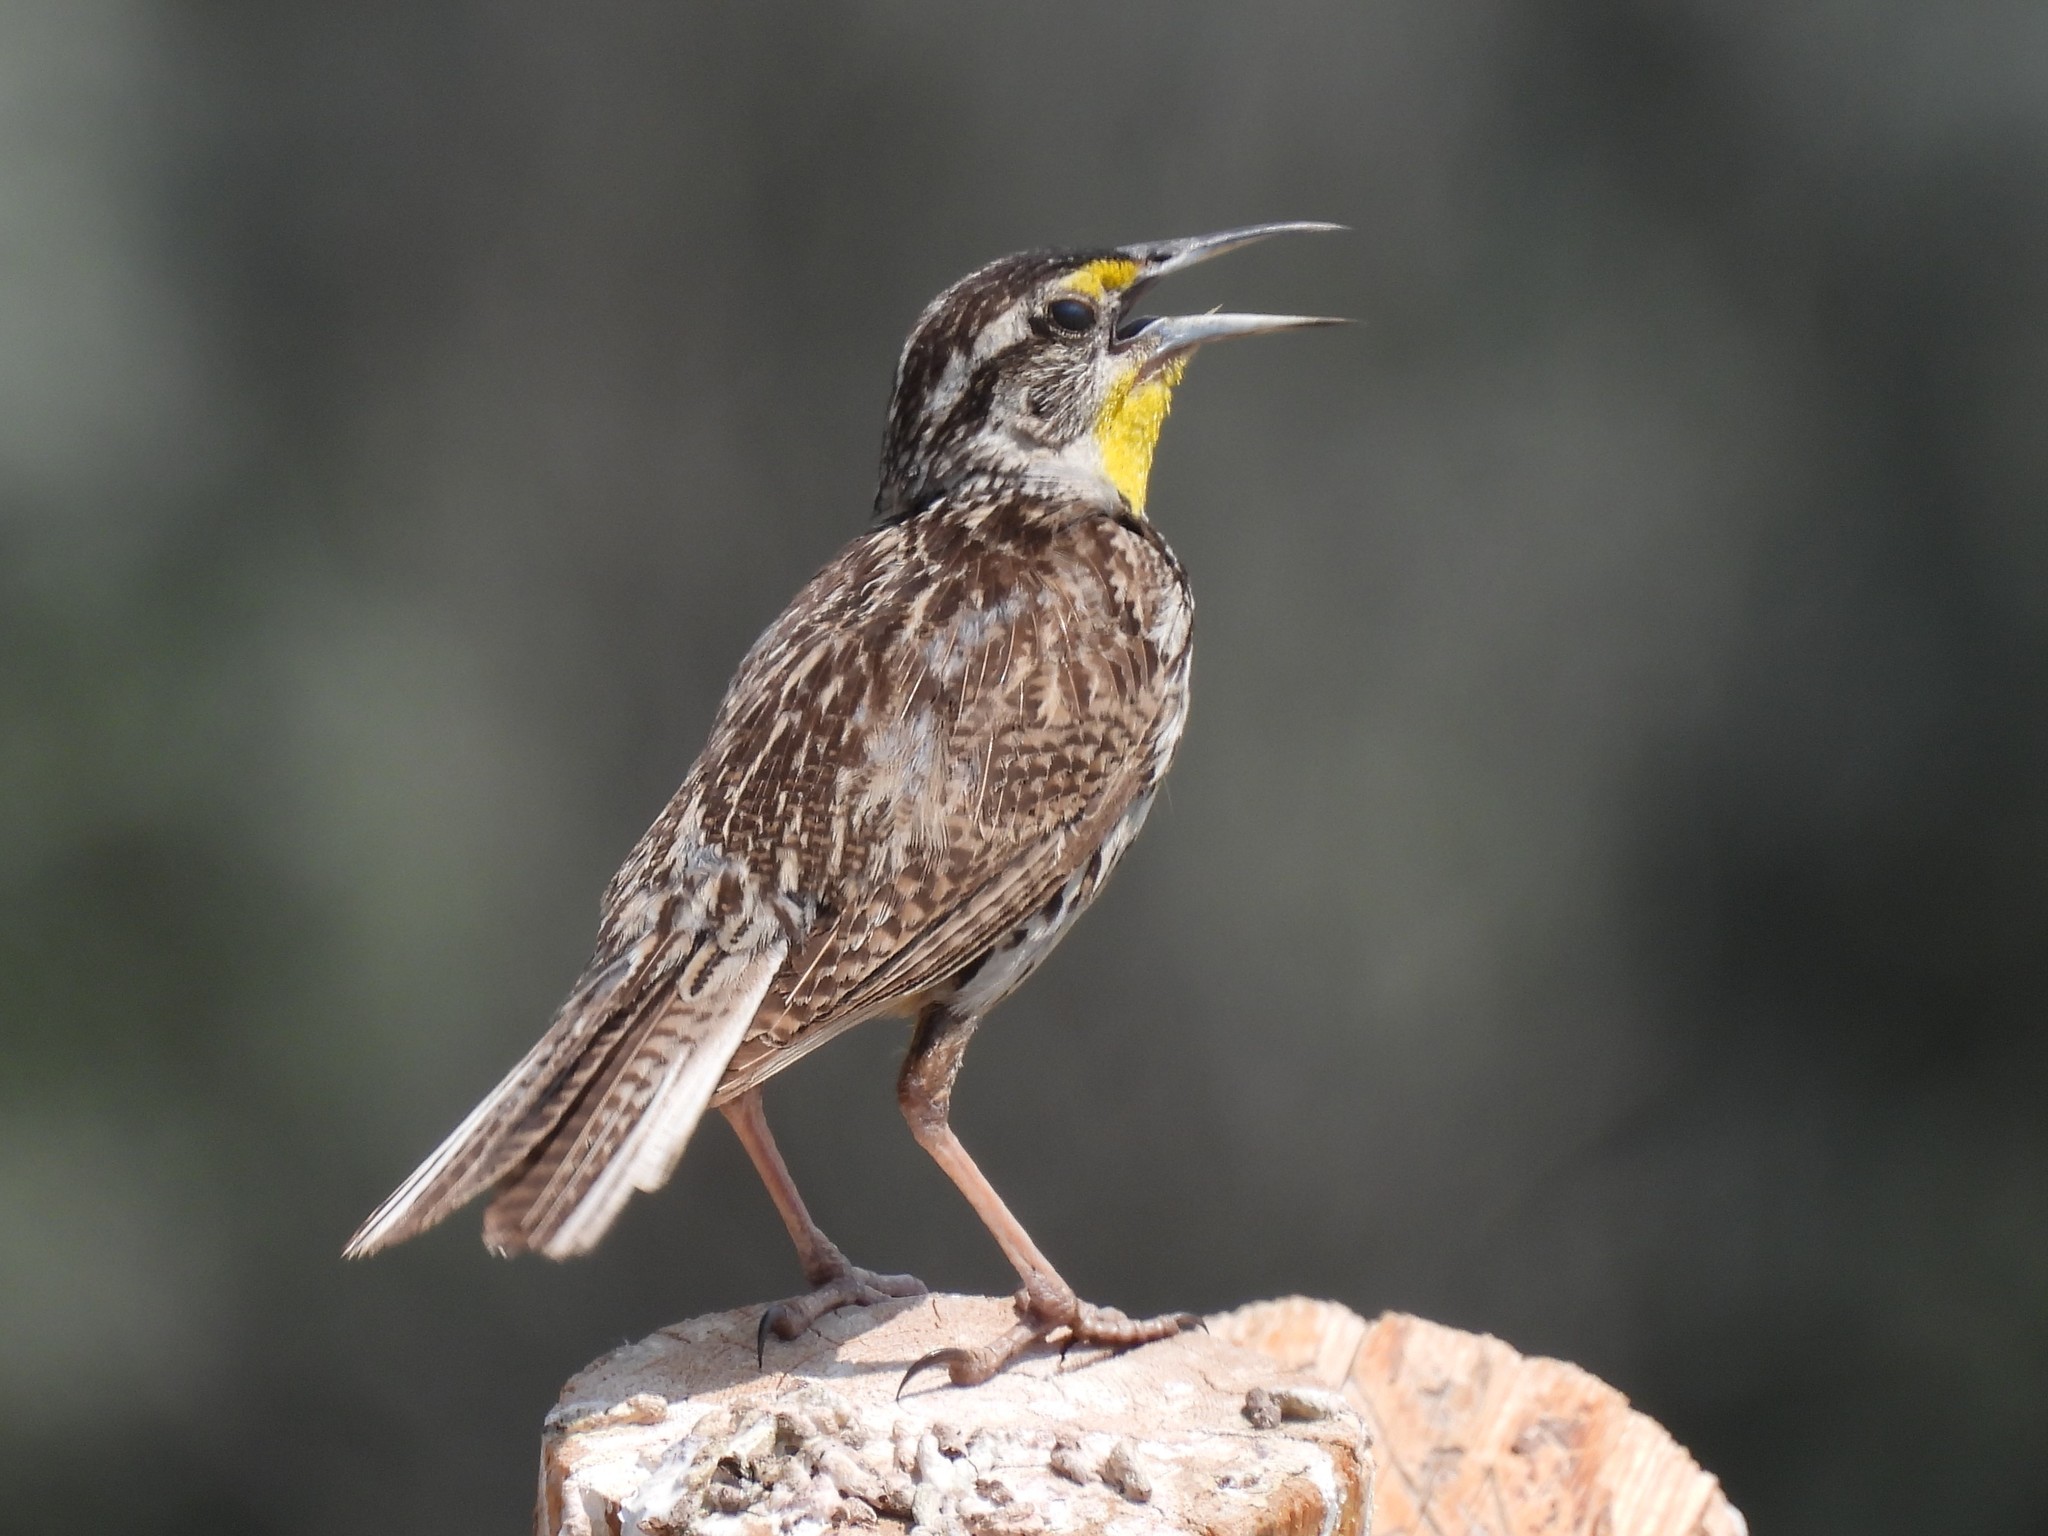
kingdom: Animalia
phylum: Chordata
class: Aves
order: Passeriformes
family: Icteridae
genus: Sturnella
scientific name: Sturnella neglecta
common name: Western meadowlark
